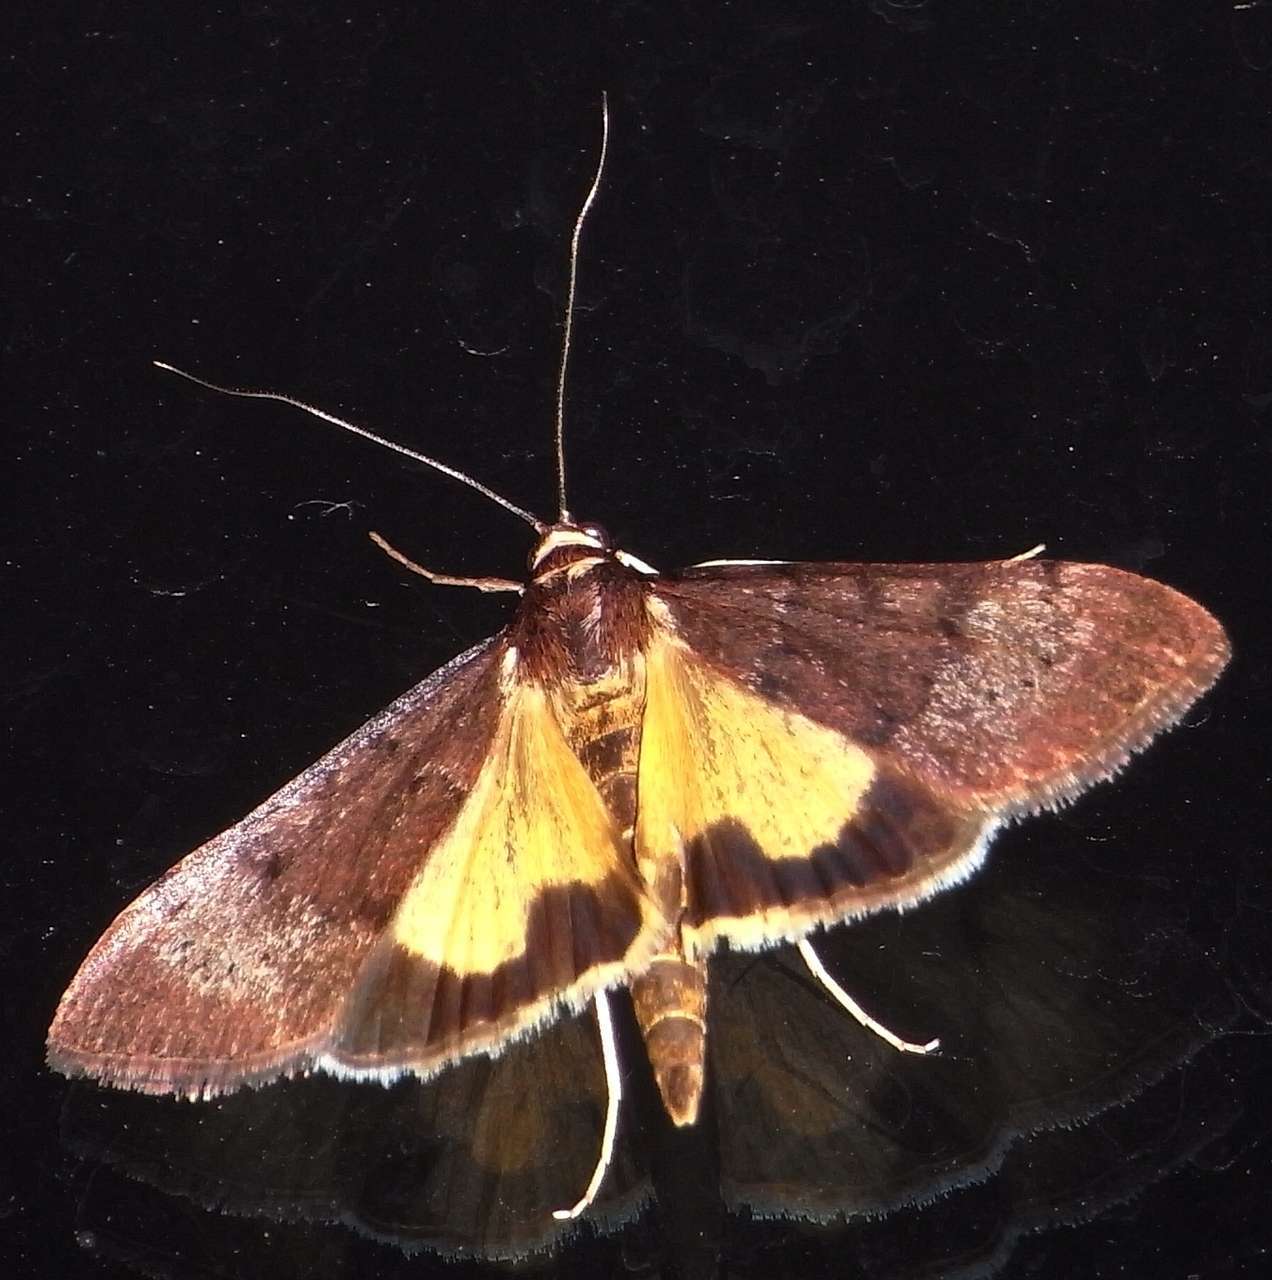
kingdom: Animalia
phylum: Arthropoda
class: Insecta
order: Lepidoptera
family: Crambidae
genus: Uresiphita
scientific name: Uresiphita ornithopteralis
